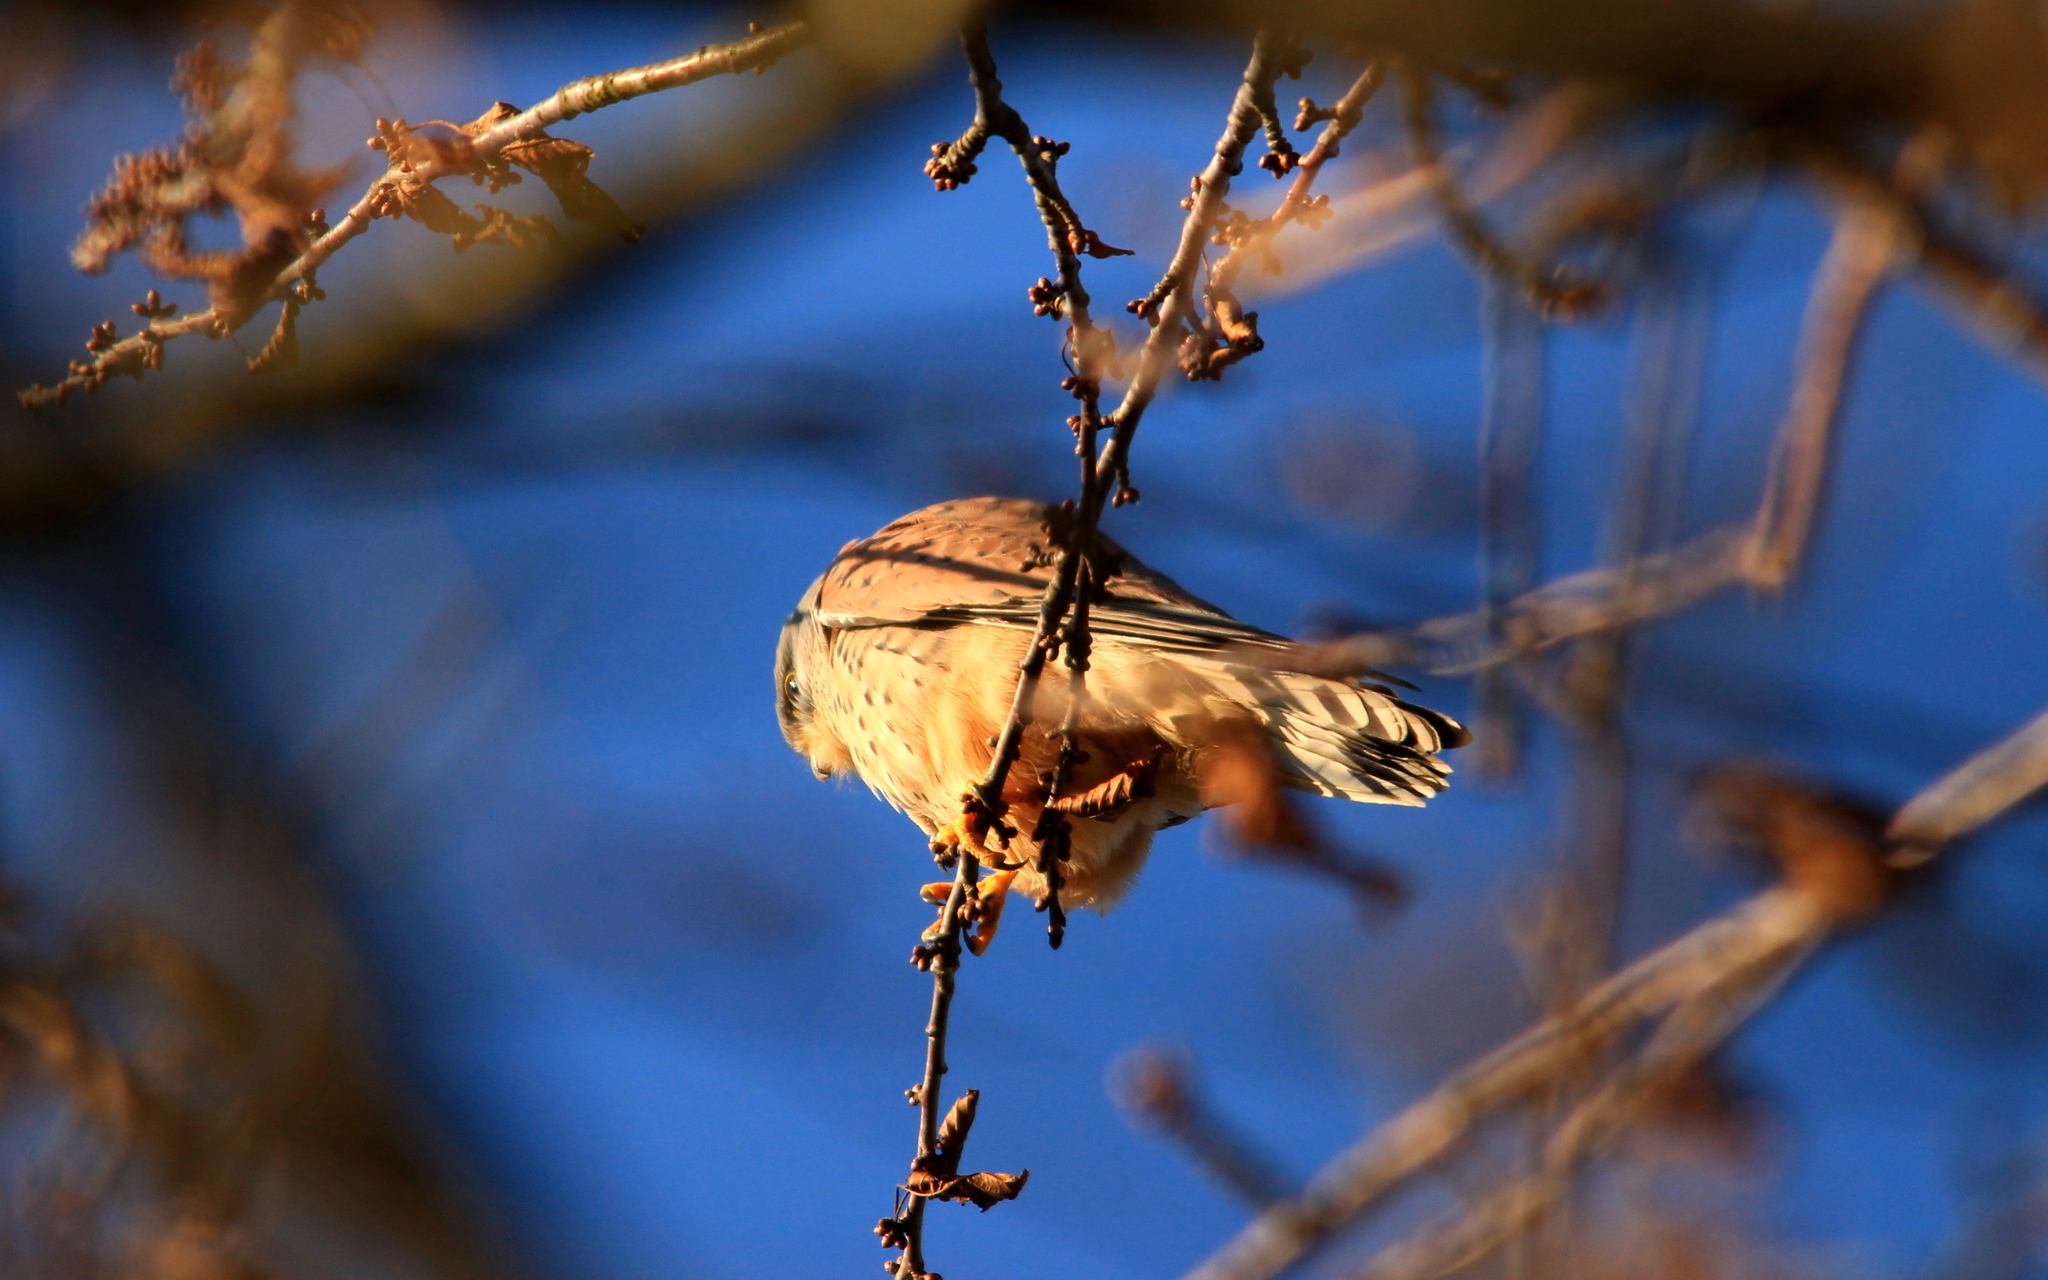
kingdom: Animalia
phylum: Chordata
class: Aves
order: Falconiformes
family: Falconidae
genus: Falco
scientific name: Falco tinnunculus
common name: Common kestrel
